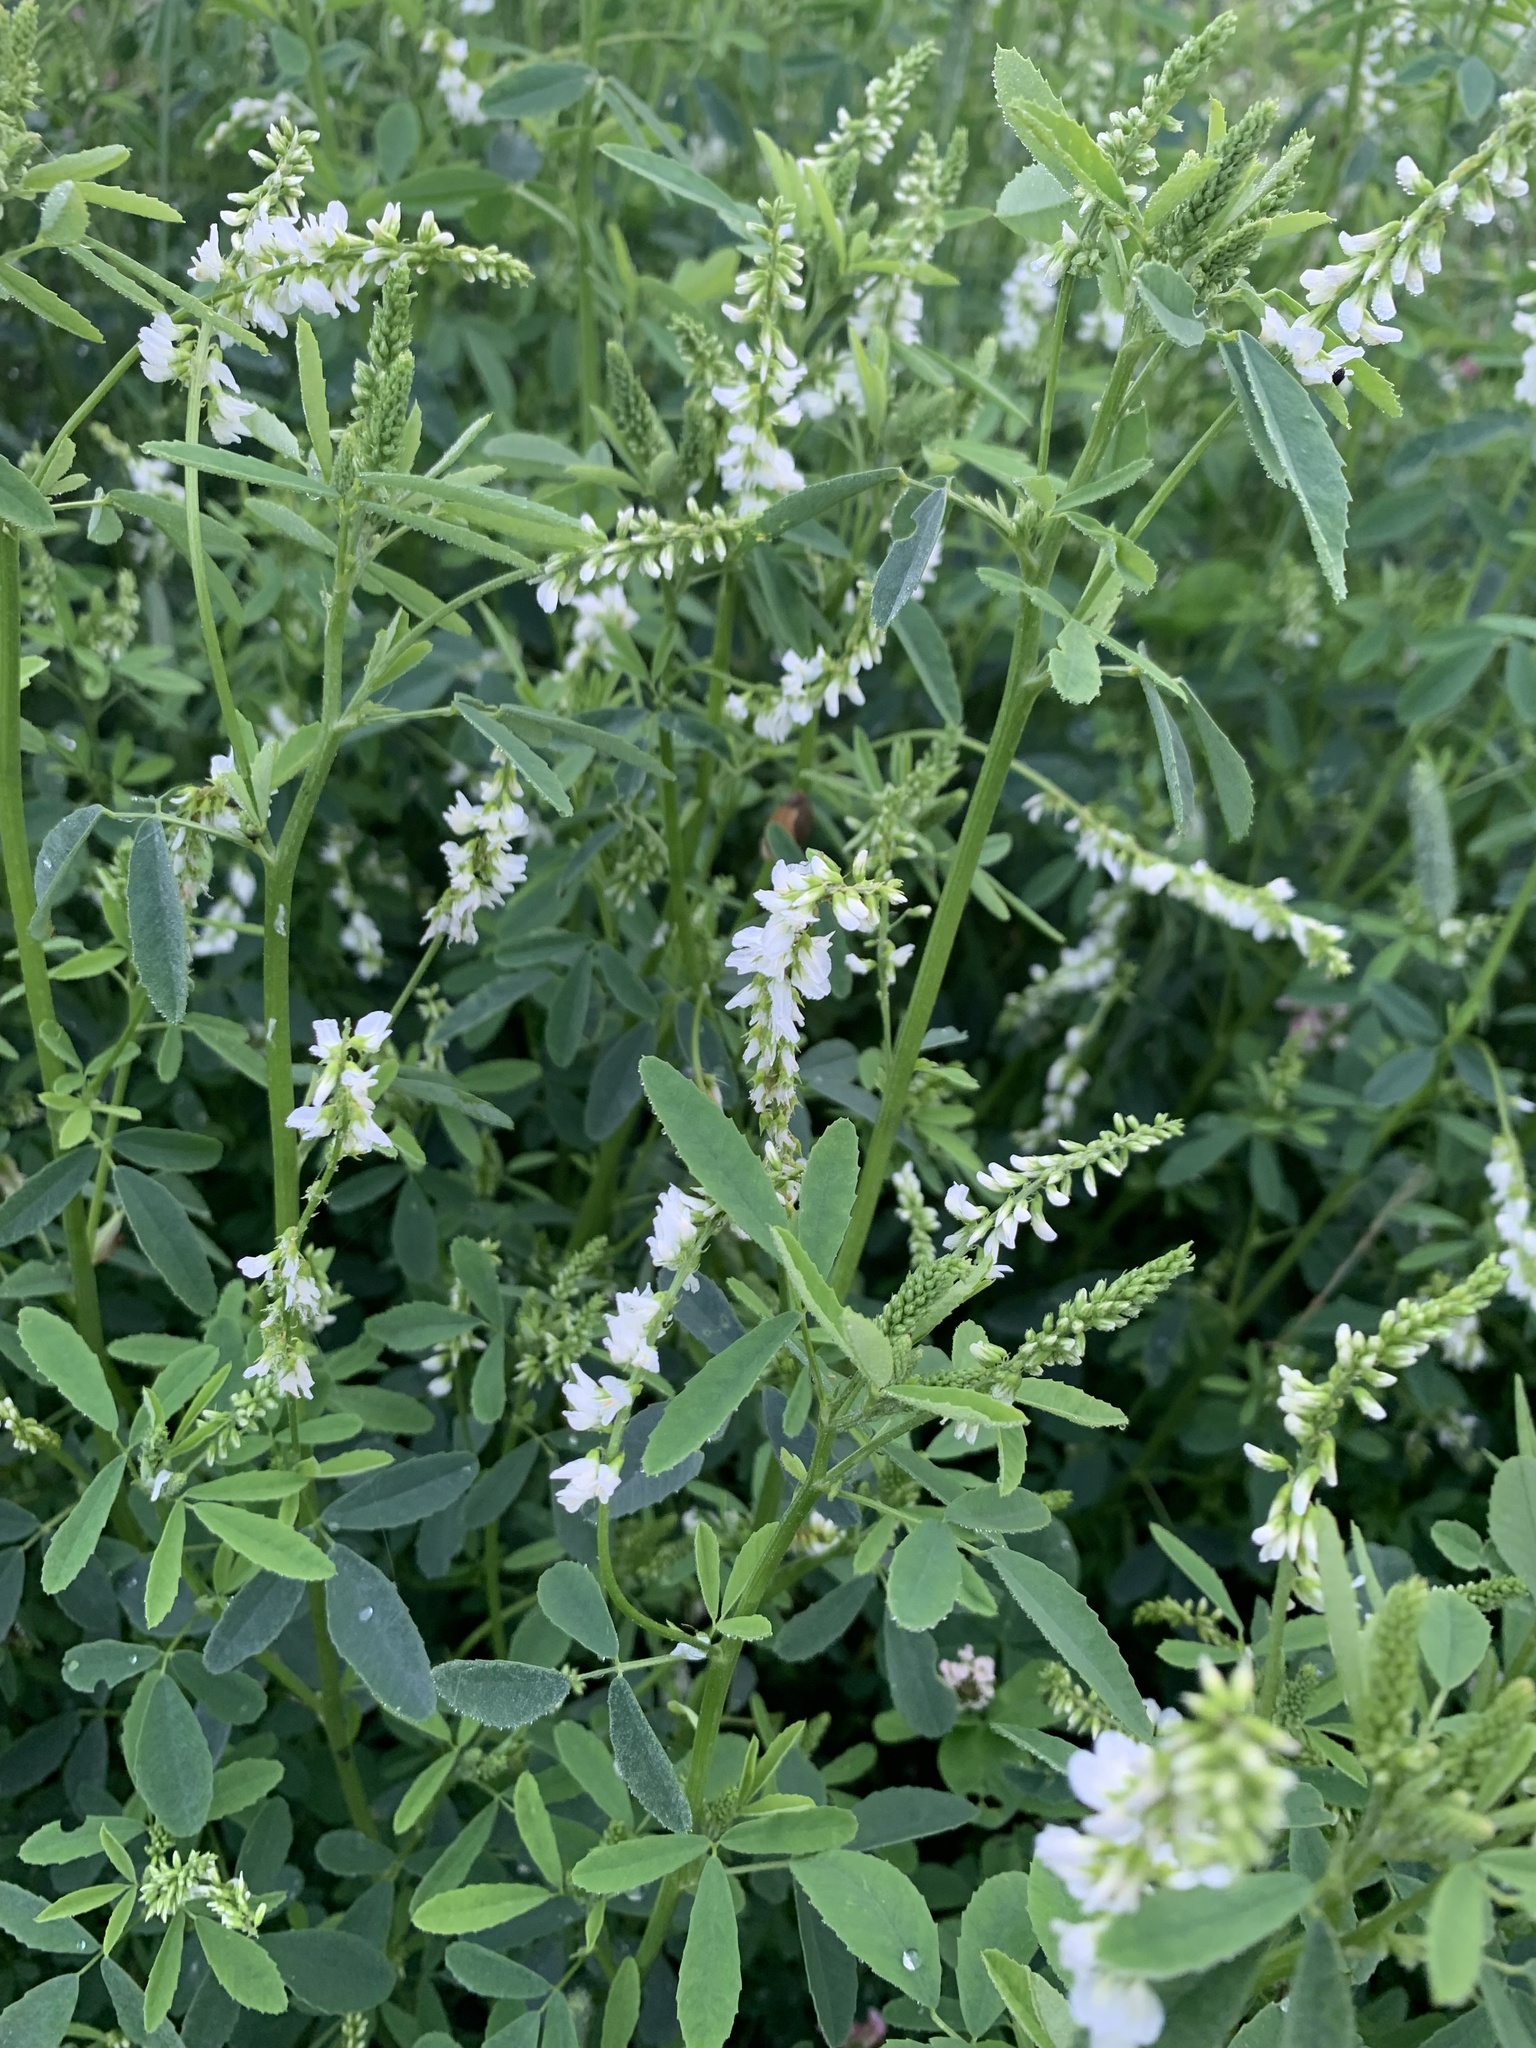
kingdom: Plantae
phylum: Tracheophyta
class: Magnoliopsida
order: Fabales
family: Fabaceae
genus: Melilotus
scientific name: Melilotus albus
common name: White melilot
